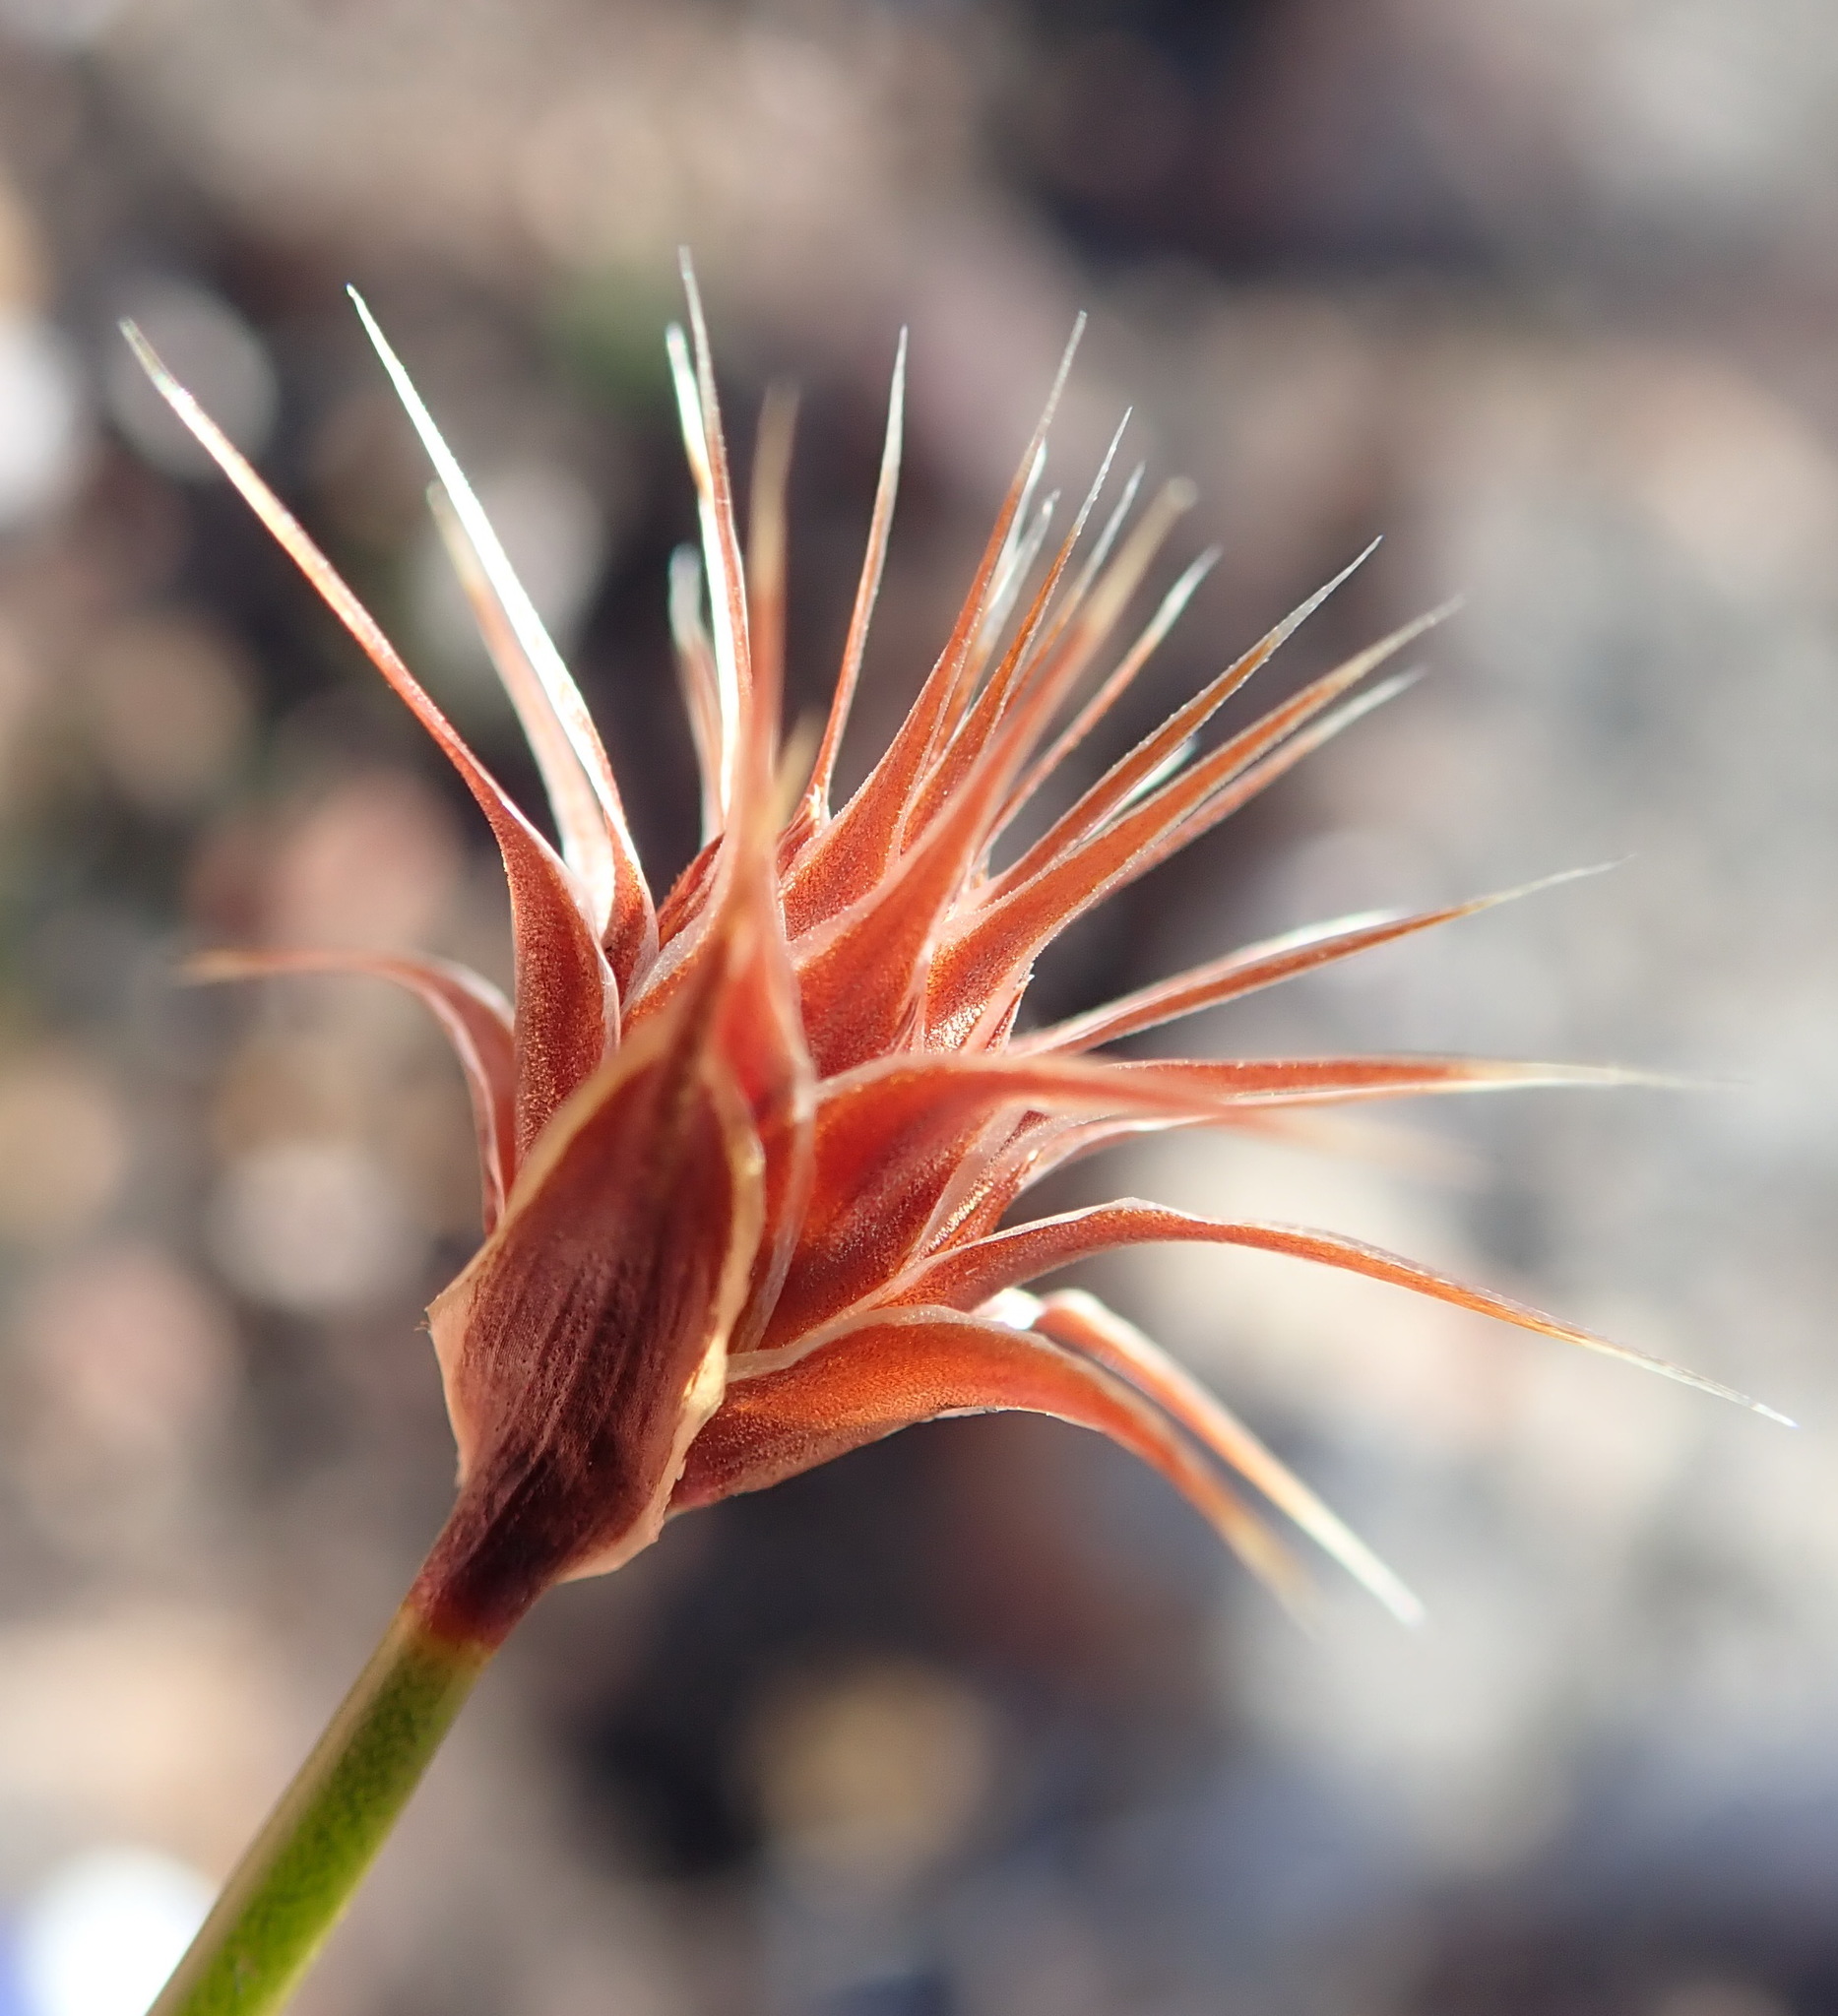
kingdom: Plantae
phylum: Tracheophyta
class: Liliopsida
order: Poales
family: Restionaceae
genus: Hypodiscus
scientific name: Hypodiscus aristatus
